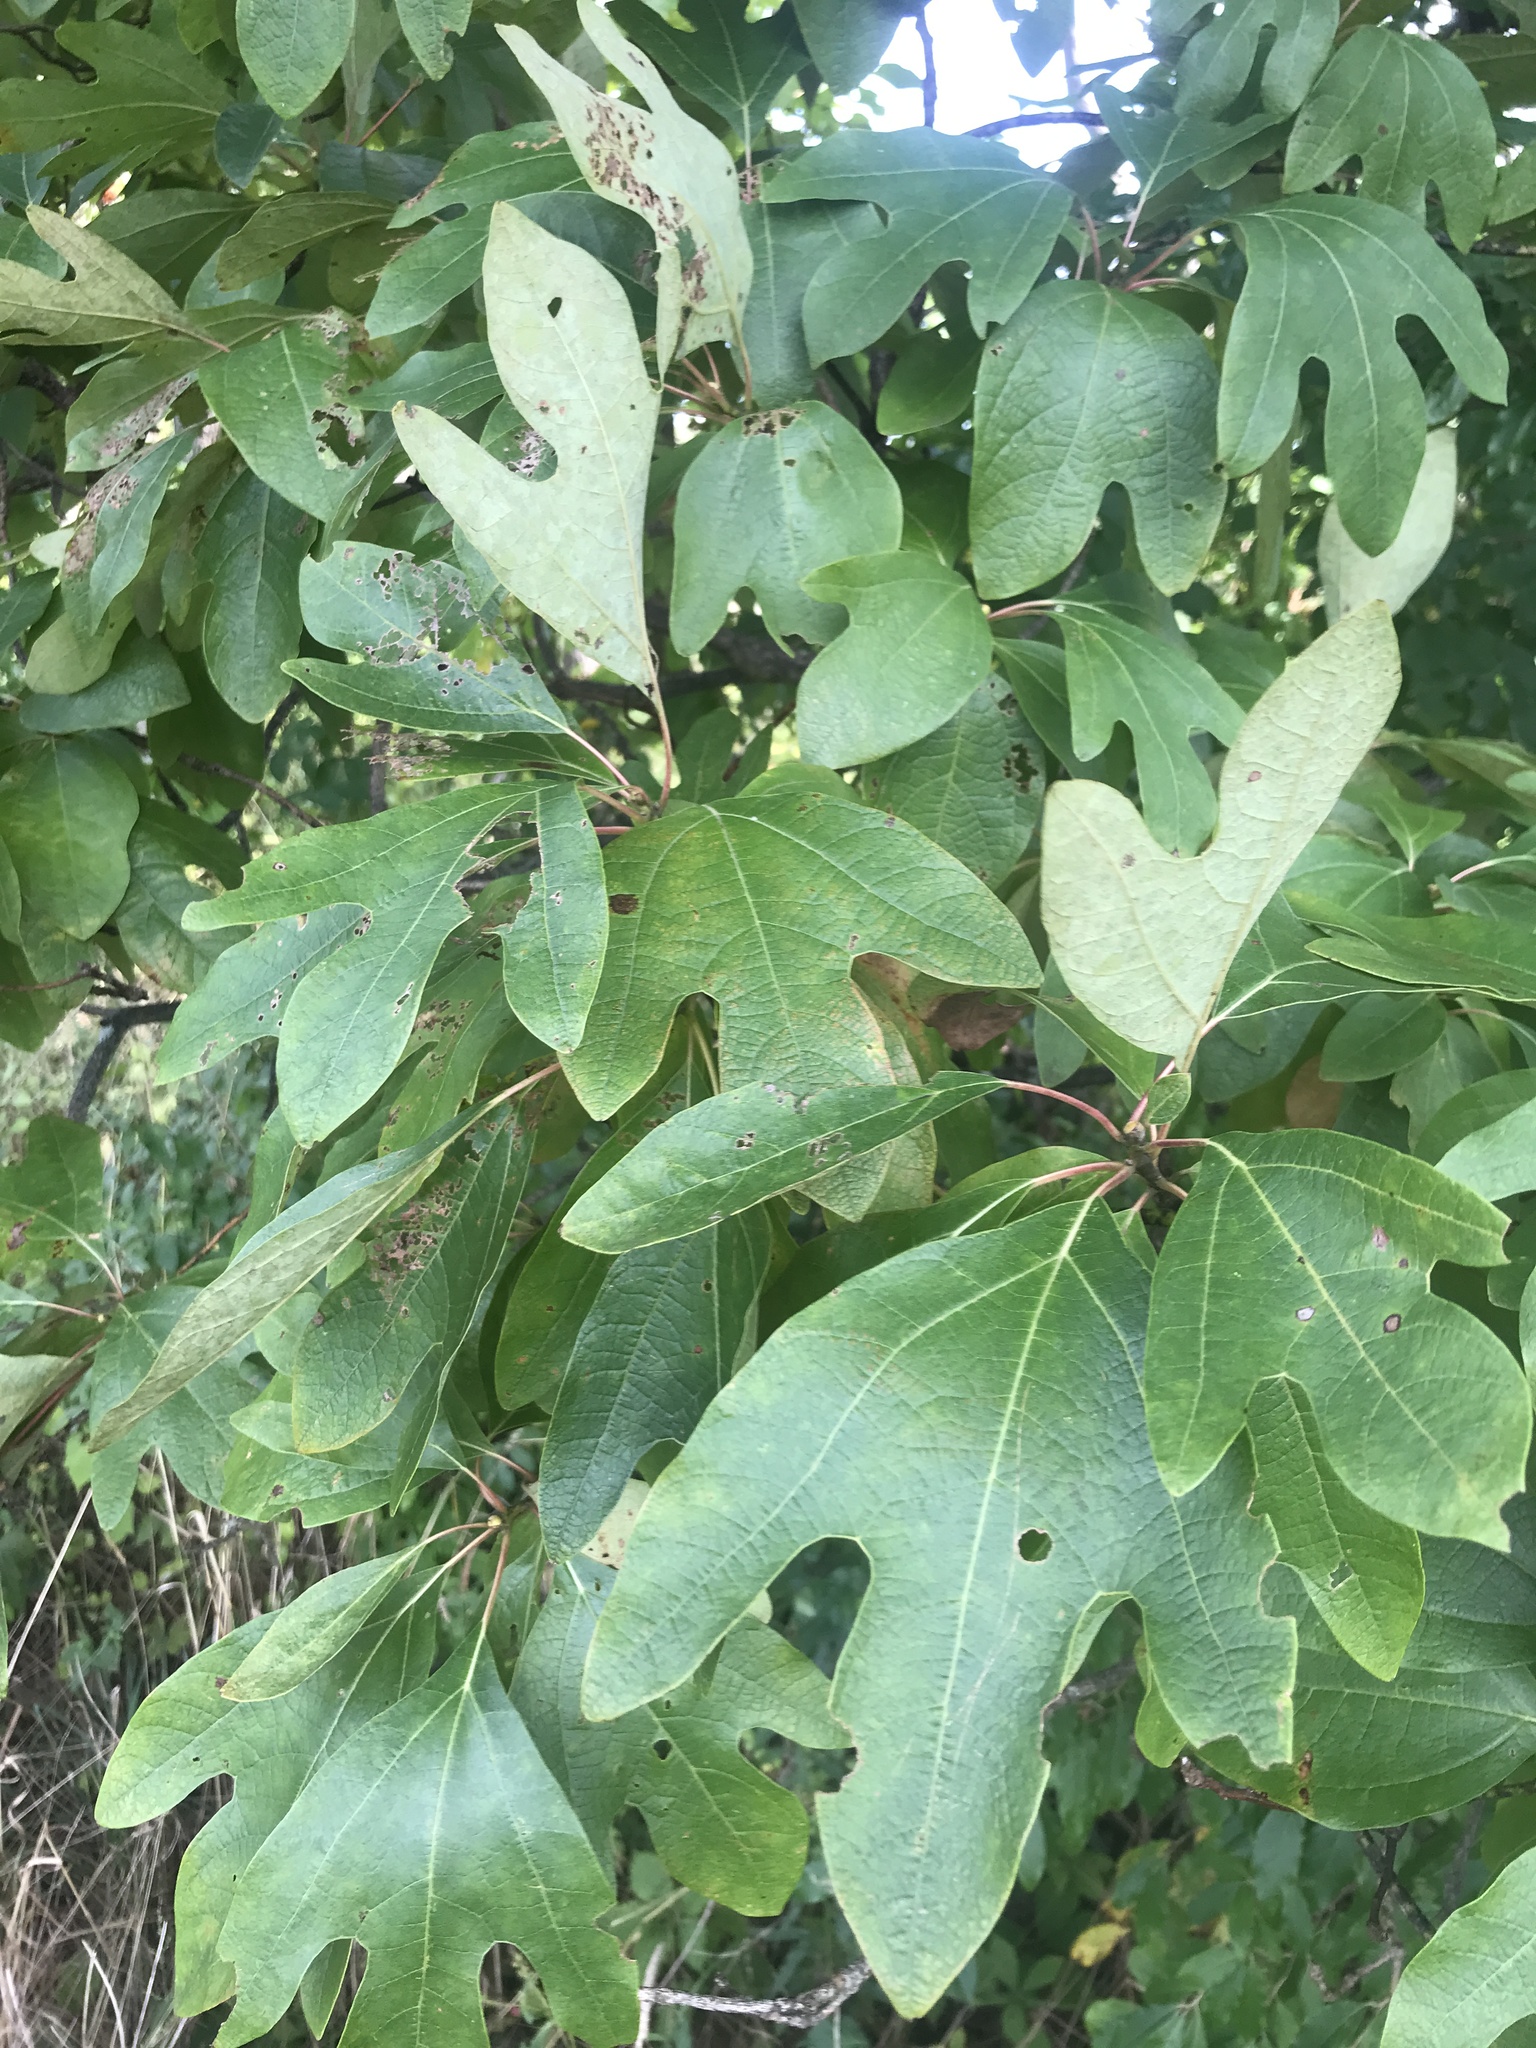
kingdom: Plantae
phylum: Tracheophyta
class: Magnoliopsida
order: Laurales
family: Lauraceae
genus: Sassafras
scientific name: Sassafras albidum
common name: Sassafras
